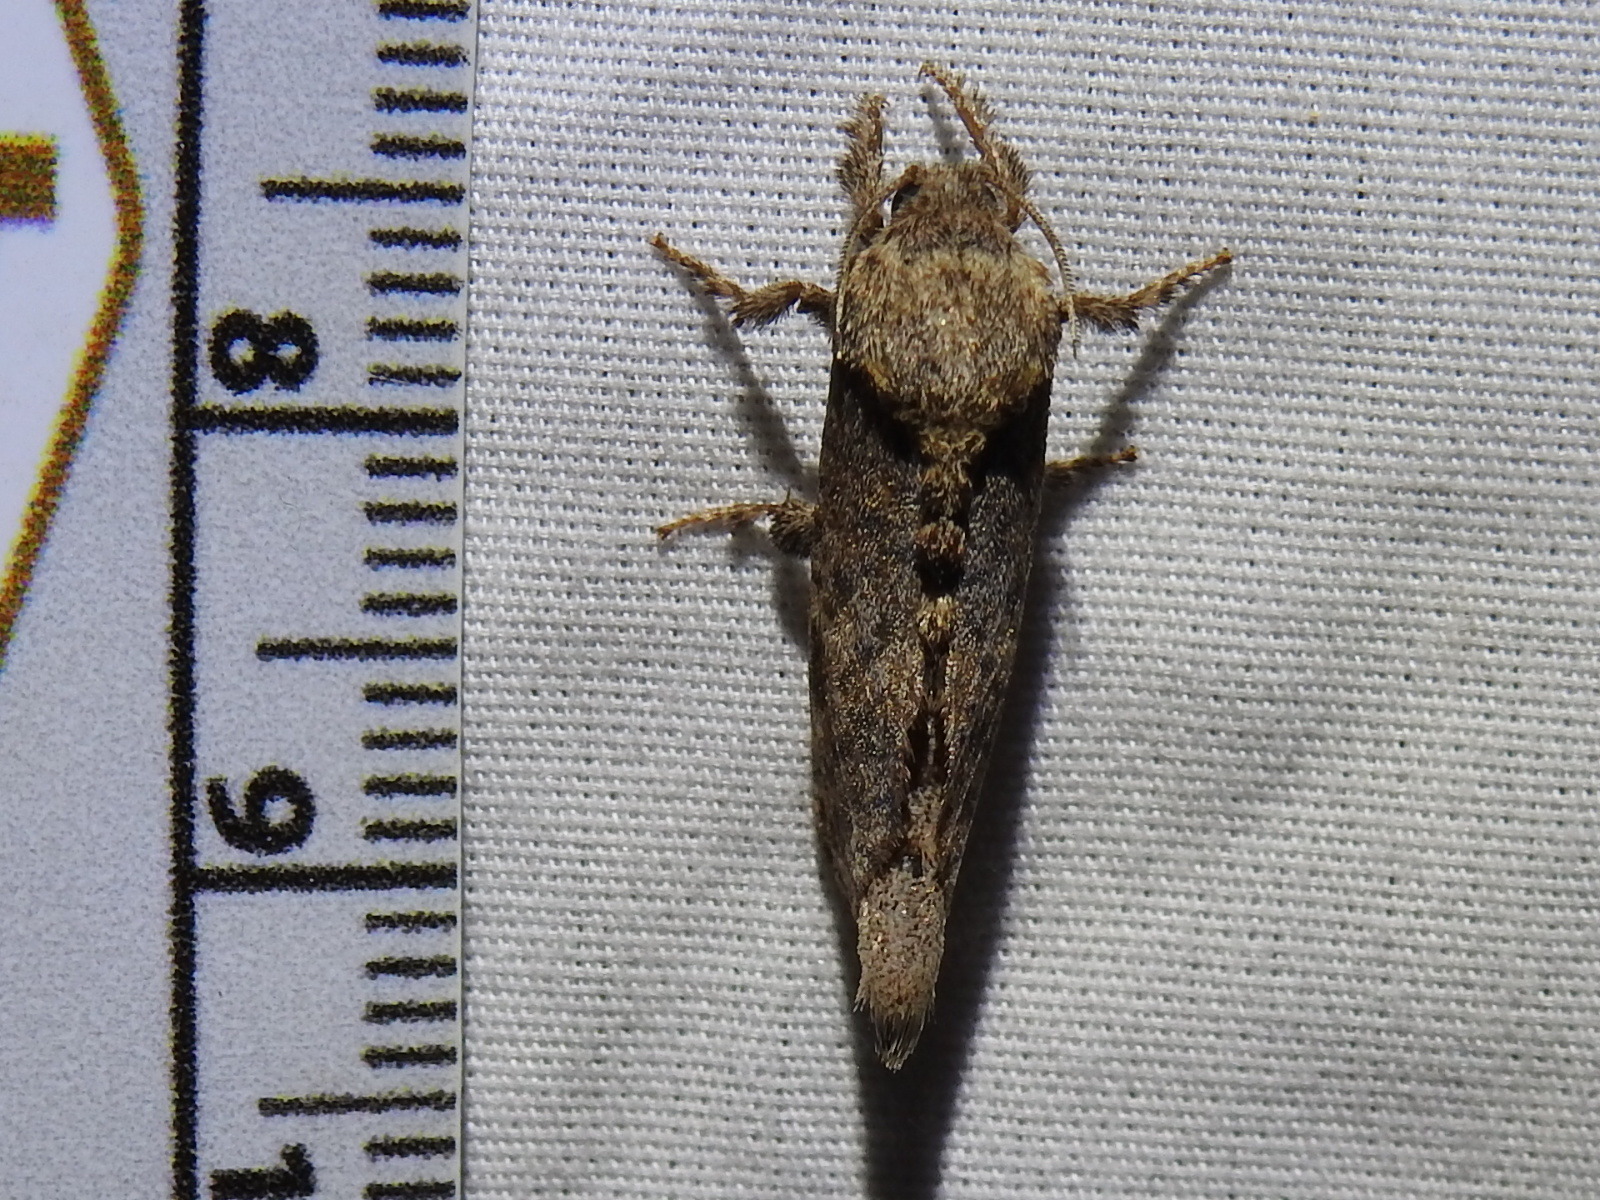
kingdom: Animalia
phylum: Arthropoda
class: Insecta
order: Lepidoptera
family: Cossidae
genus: Givira
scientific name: Givira arbeloides
